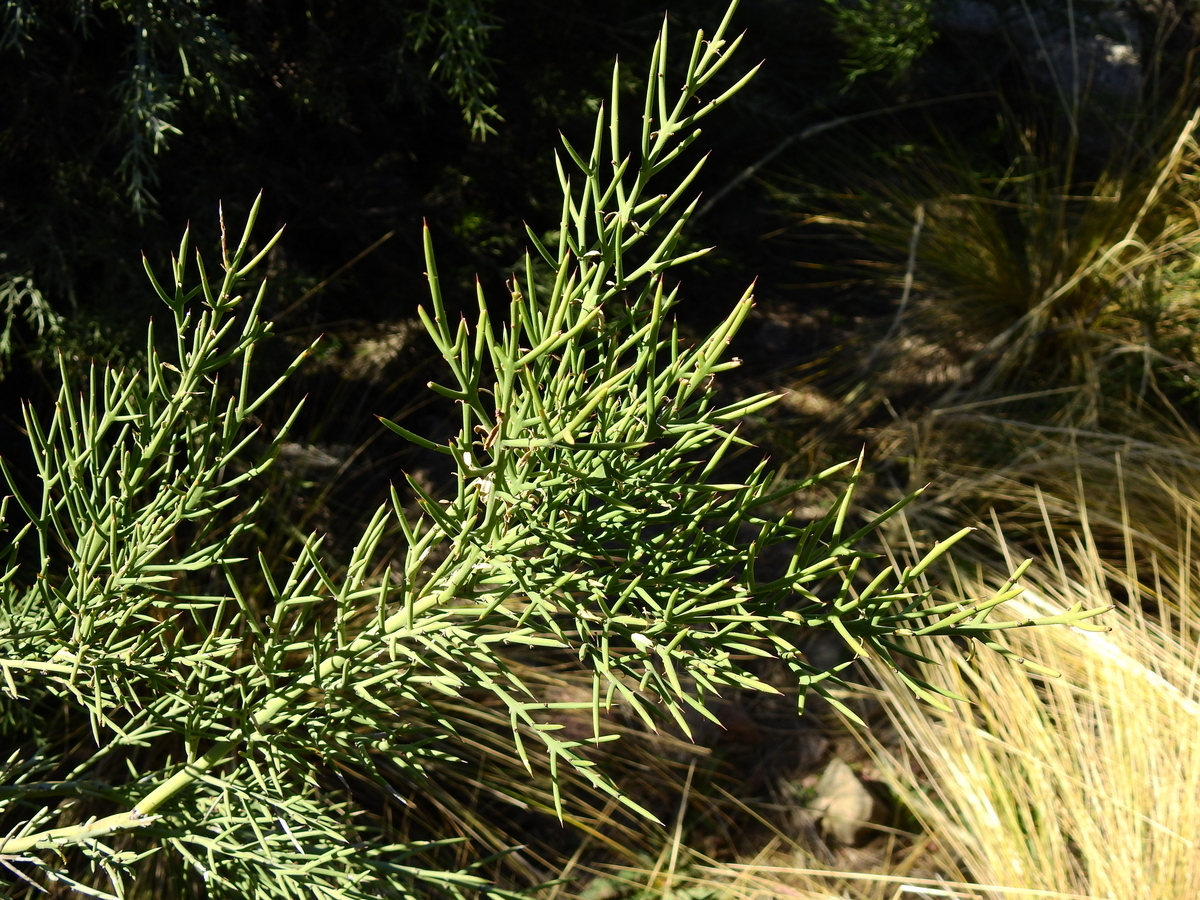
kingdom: Plantae
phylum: Tracheophyta
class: Magnoliopsida
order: Rosales
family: Rhamnaceae
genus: Colletia
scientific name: Colletia spinosissima
